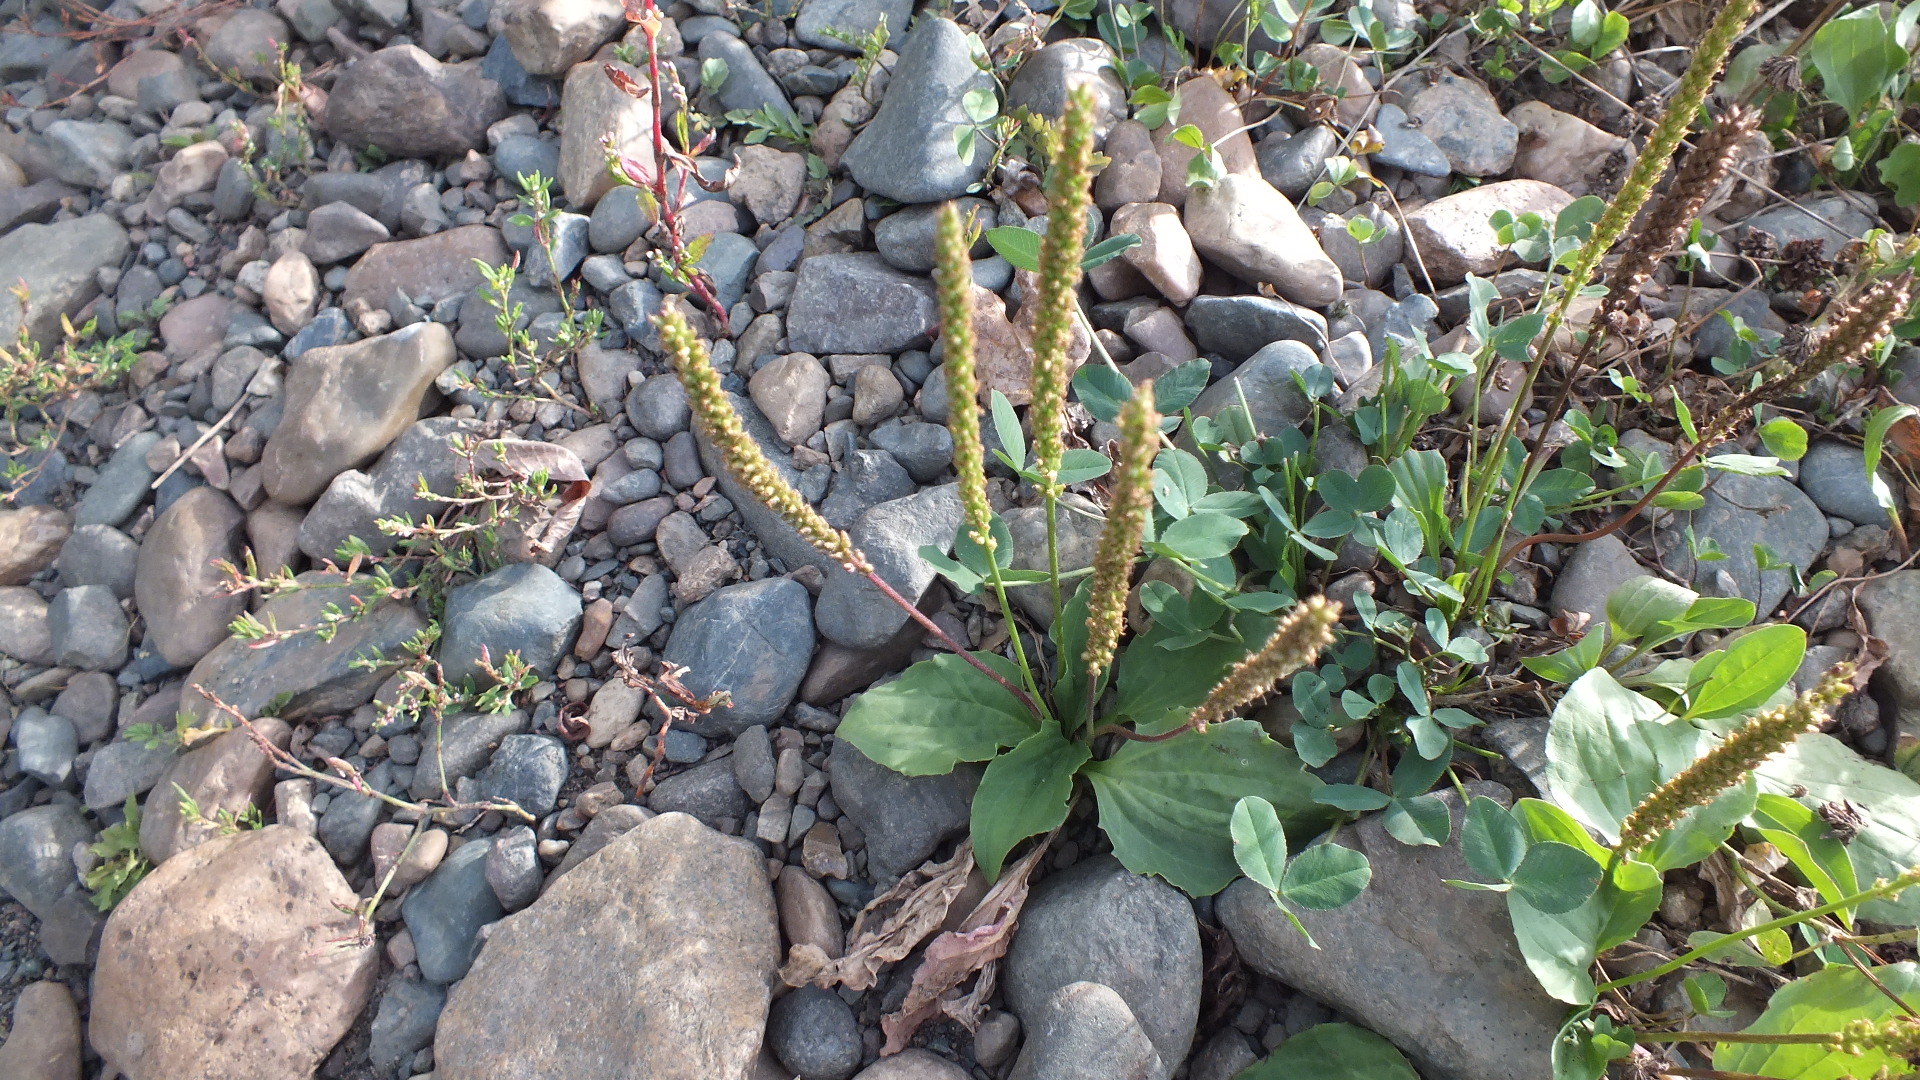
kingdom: Plantae
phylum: Tracheophyta
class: Magnoliopsida
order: Lamiales
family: Plantaginaceae
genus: Plantago
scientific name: Plantago major
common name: Common plantain
